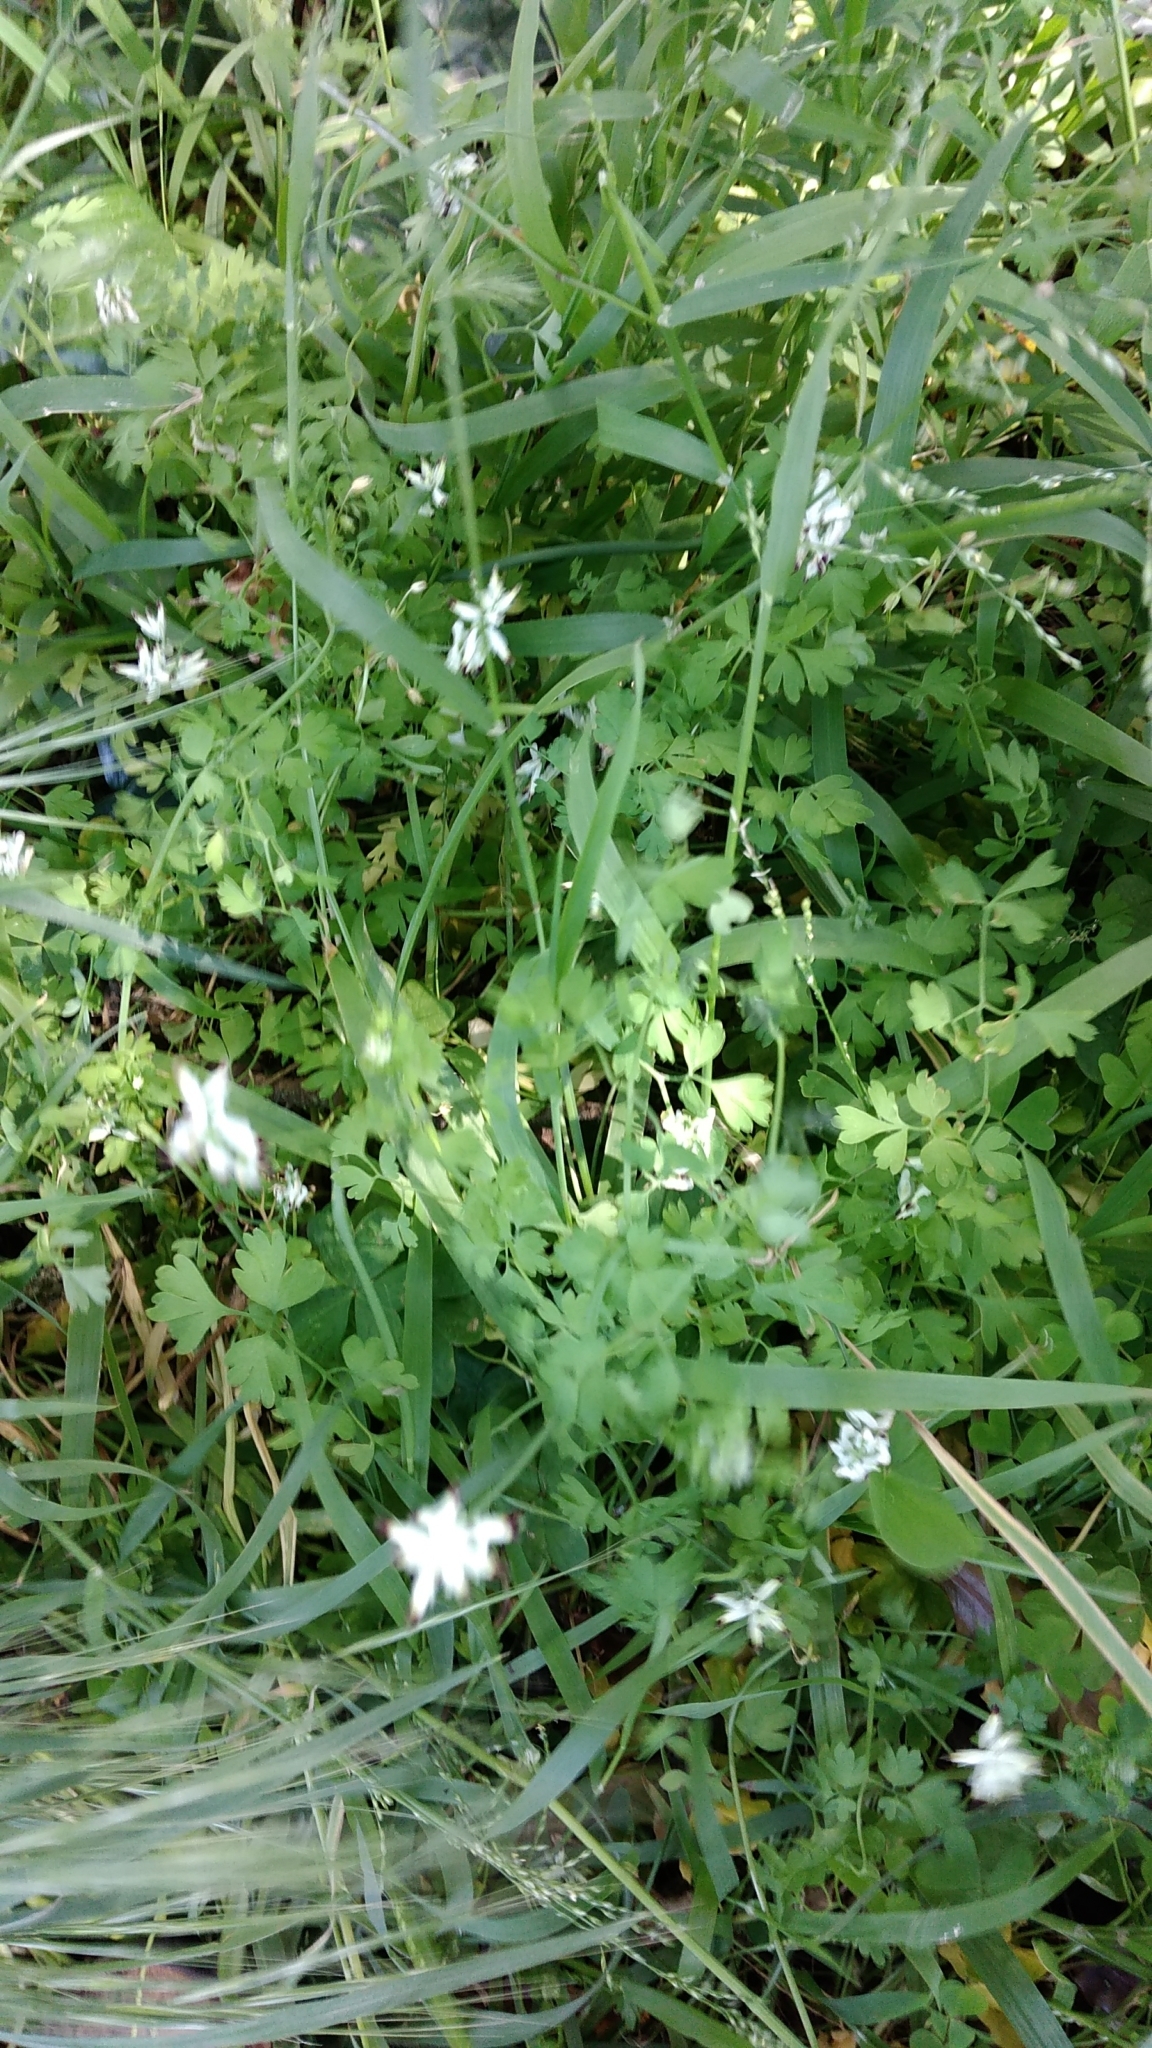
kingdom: Plantae
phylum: Tracheophyta
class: Magnoliopsida
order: Ranunculales
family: Papaveraceae
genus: Fumaria
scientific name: Fumaria capreolata
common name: White ramping-fumitory
